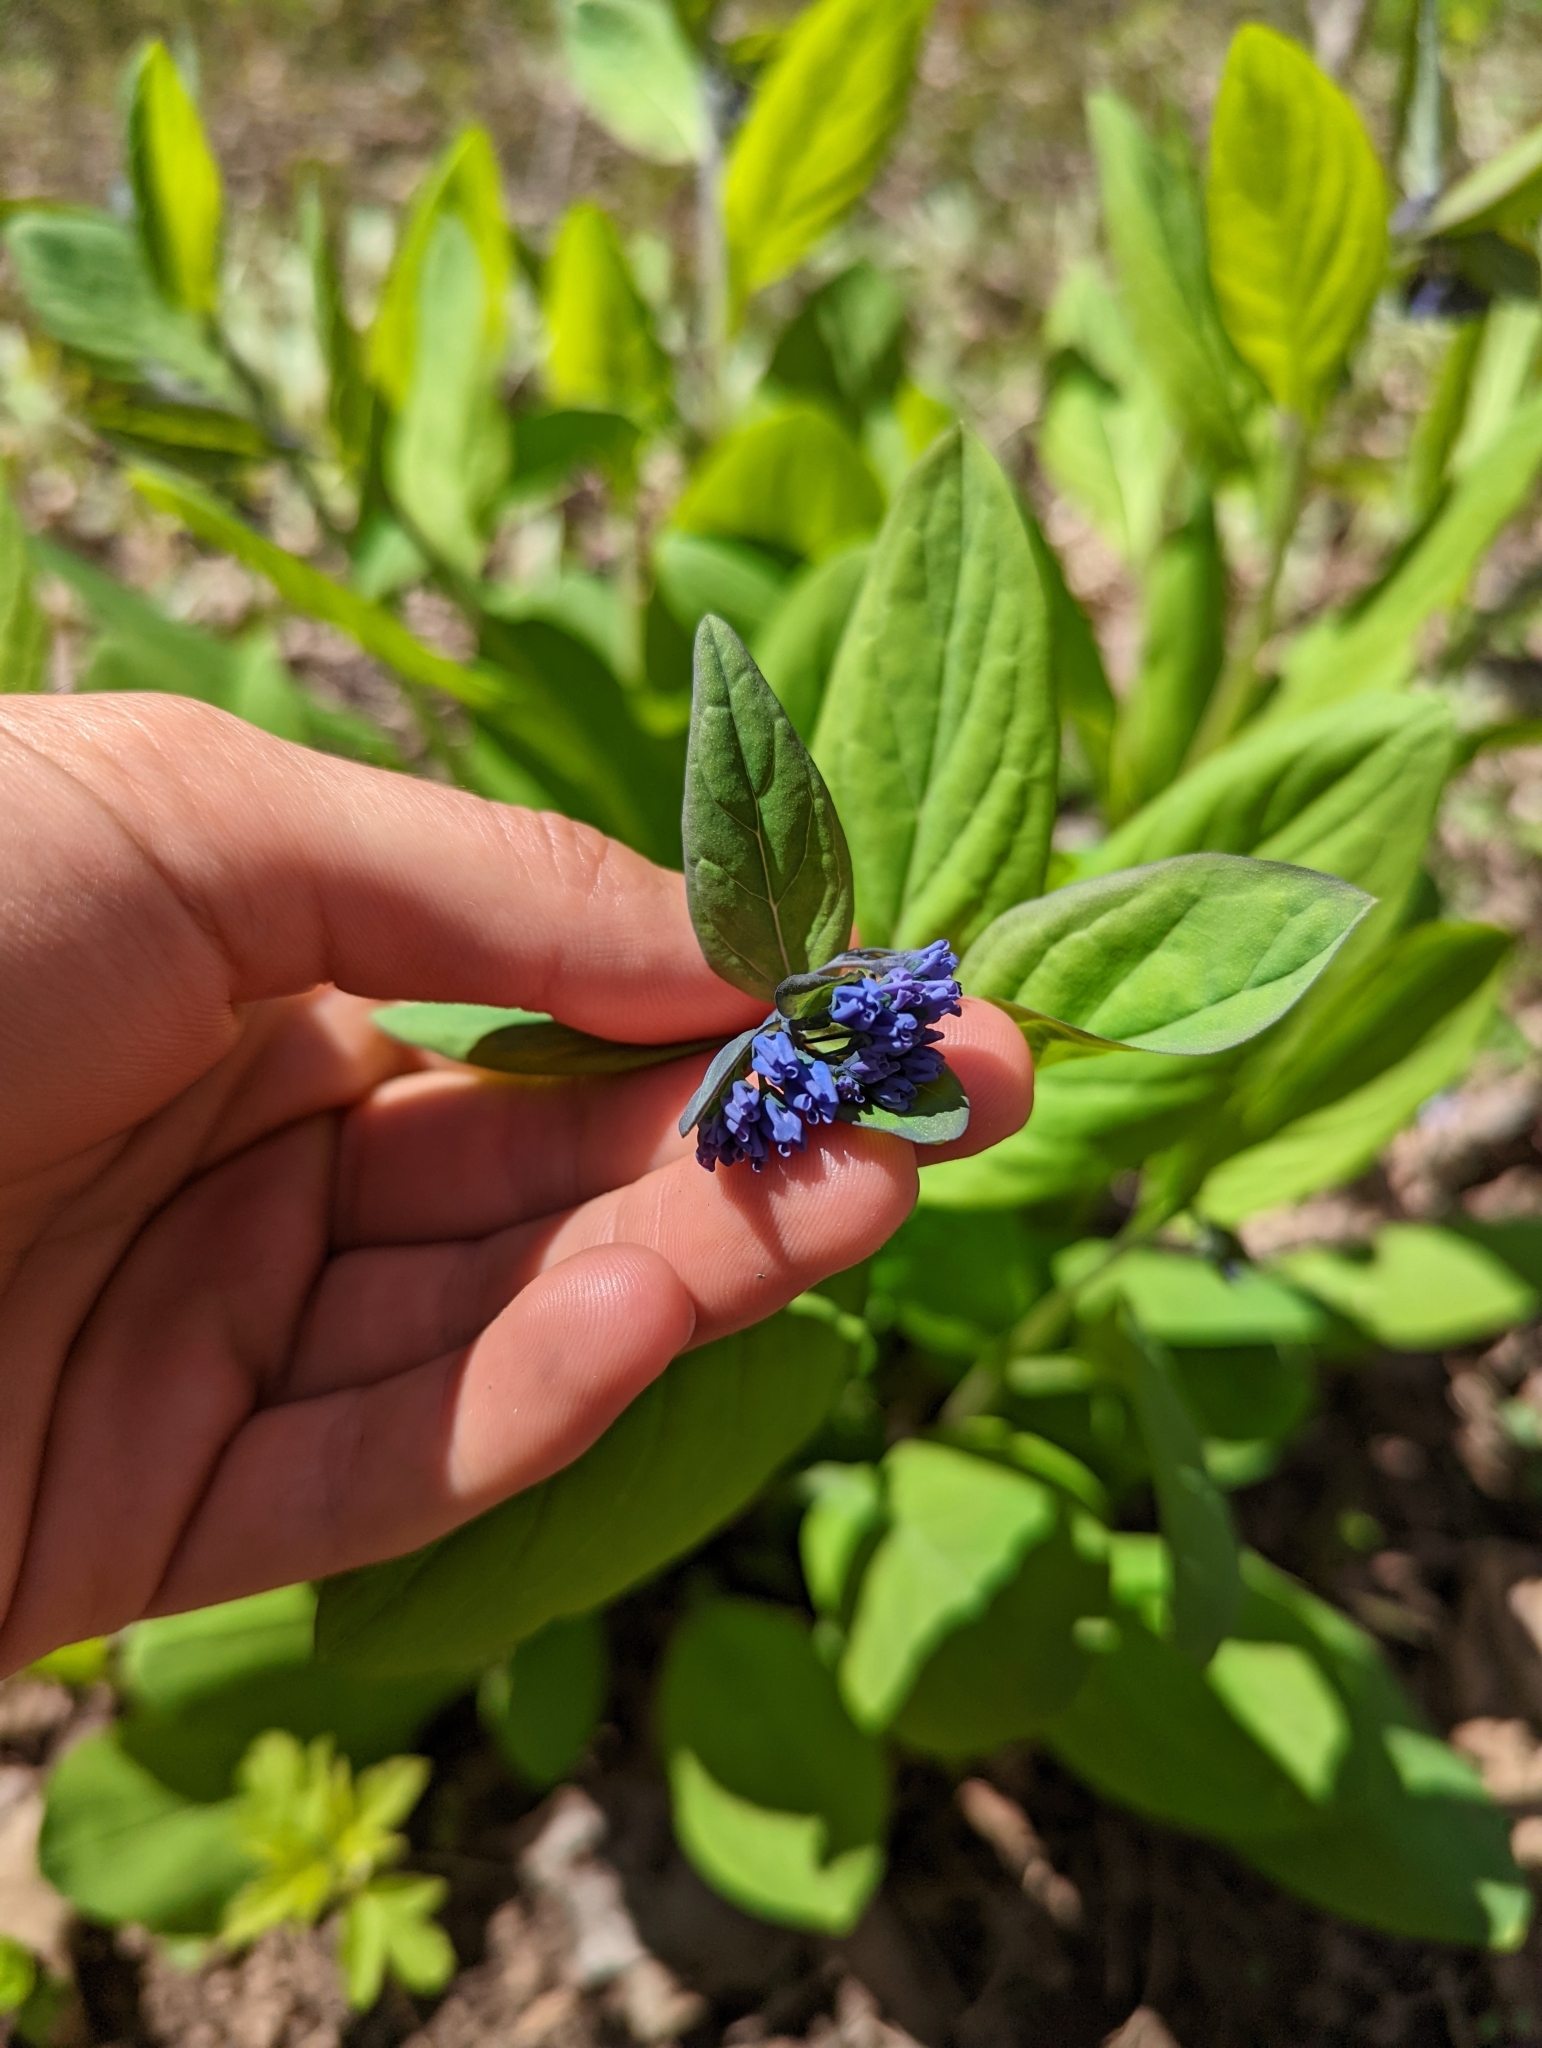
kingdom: Plantae
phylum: Tracheophyta
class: Magnoliopsida
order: Boraginales
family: Boraginaceae
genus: Mertensia
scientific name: Mertensia virginica
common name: Virginia bluebells
